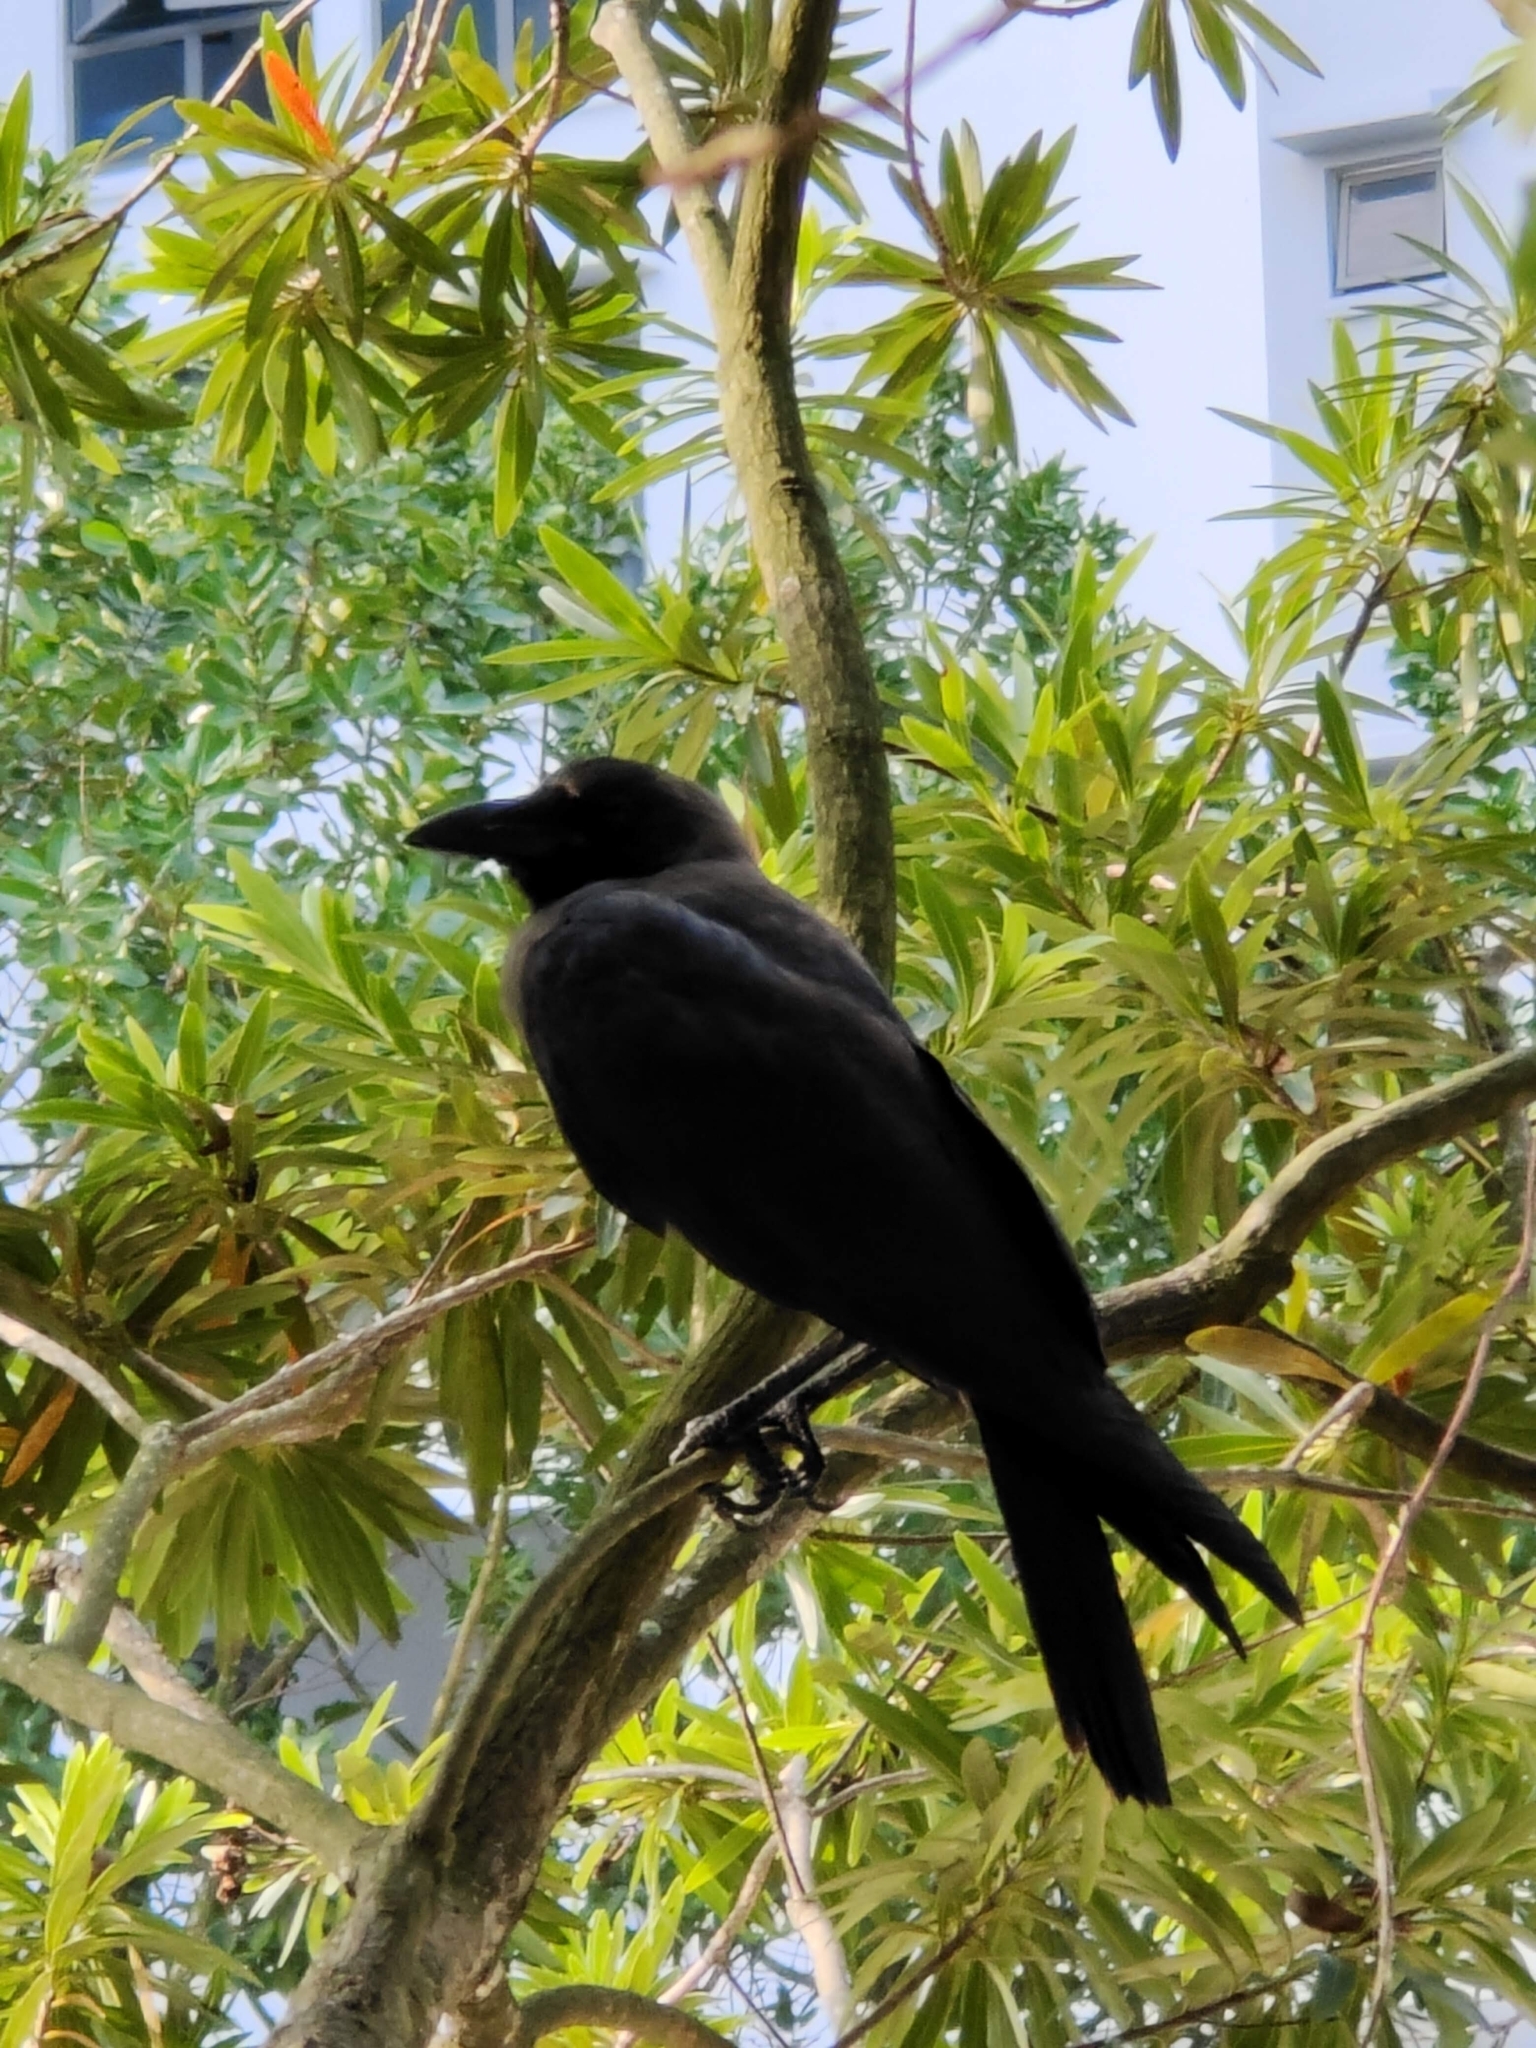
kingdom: Animalia
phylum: Chordata
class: Aves
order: Passeriformes
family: Corvidae
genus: Corvus
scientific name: Corvus splendens
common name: House crow
